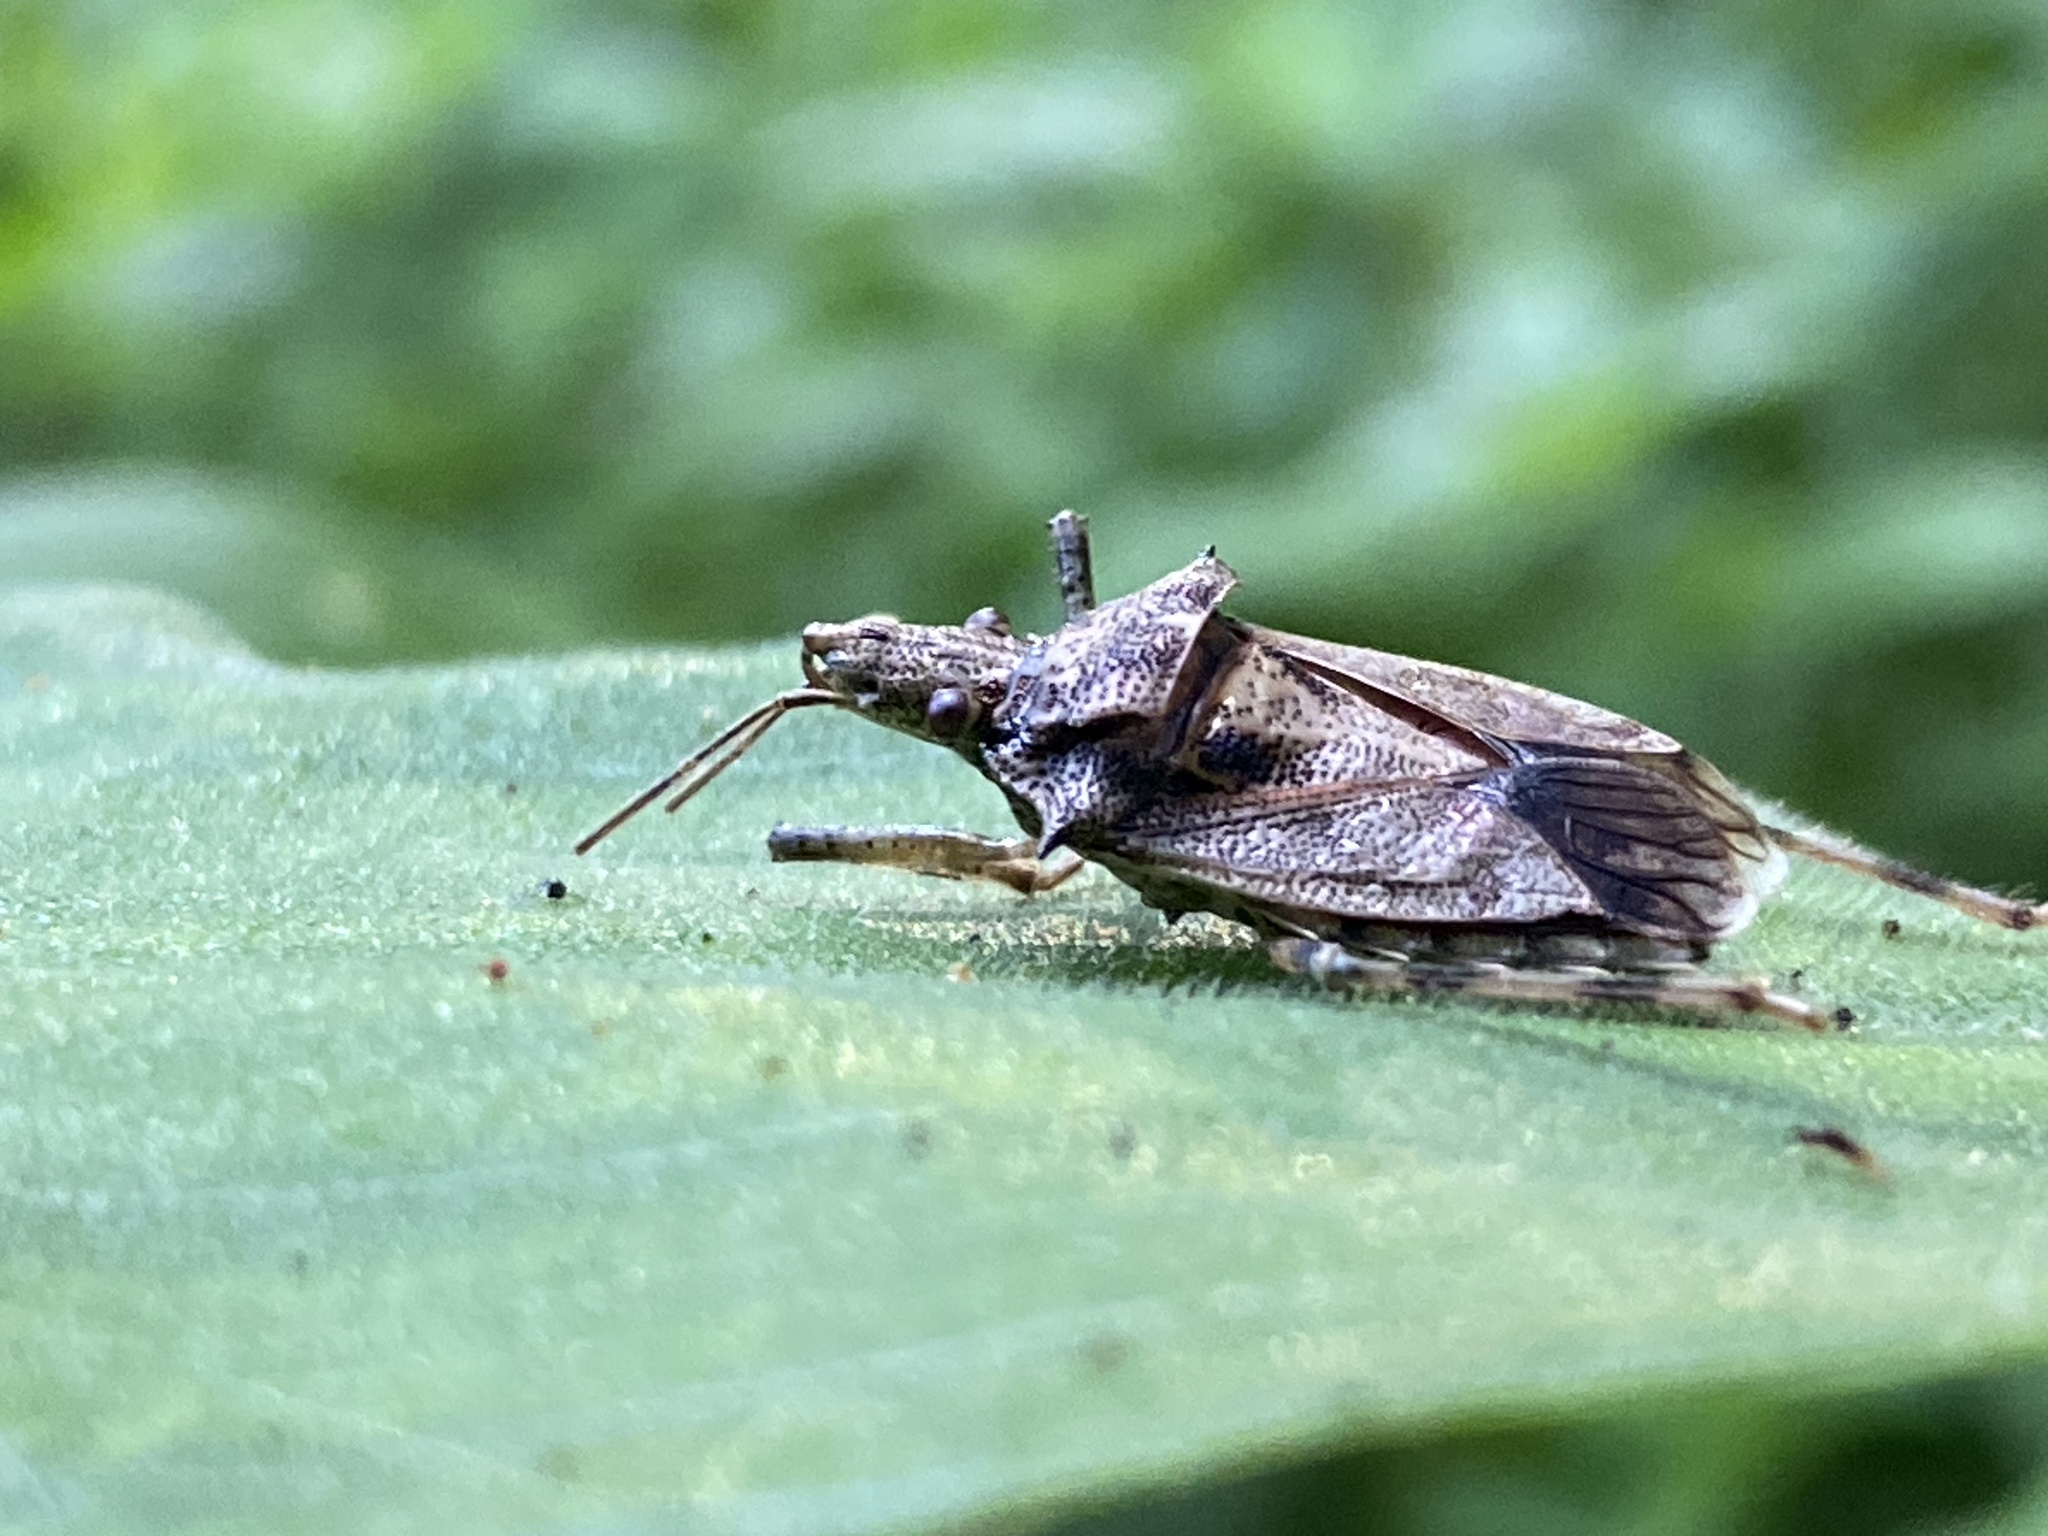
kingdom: Animalia
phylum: Arthropoda
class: Insecta
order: Hemiptera
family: Pentatomidae
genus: Bromocoris
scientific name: Bromocoris
